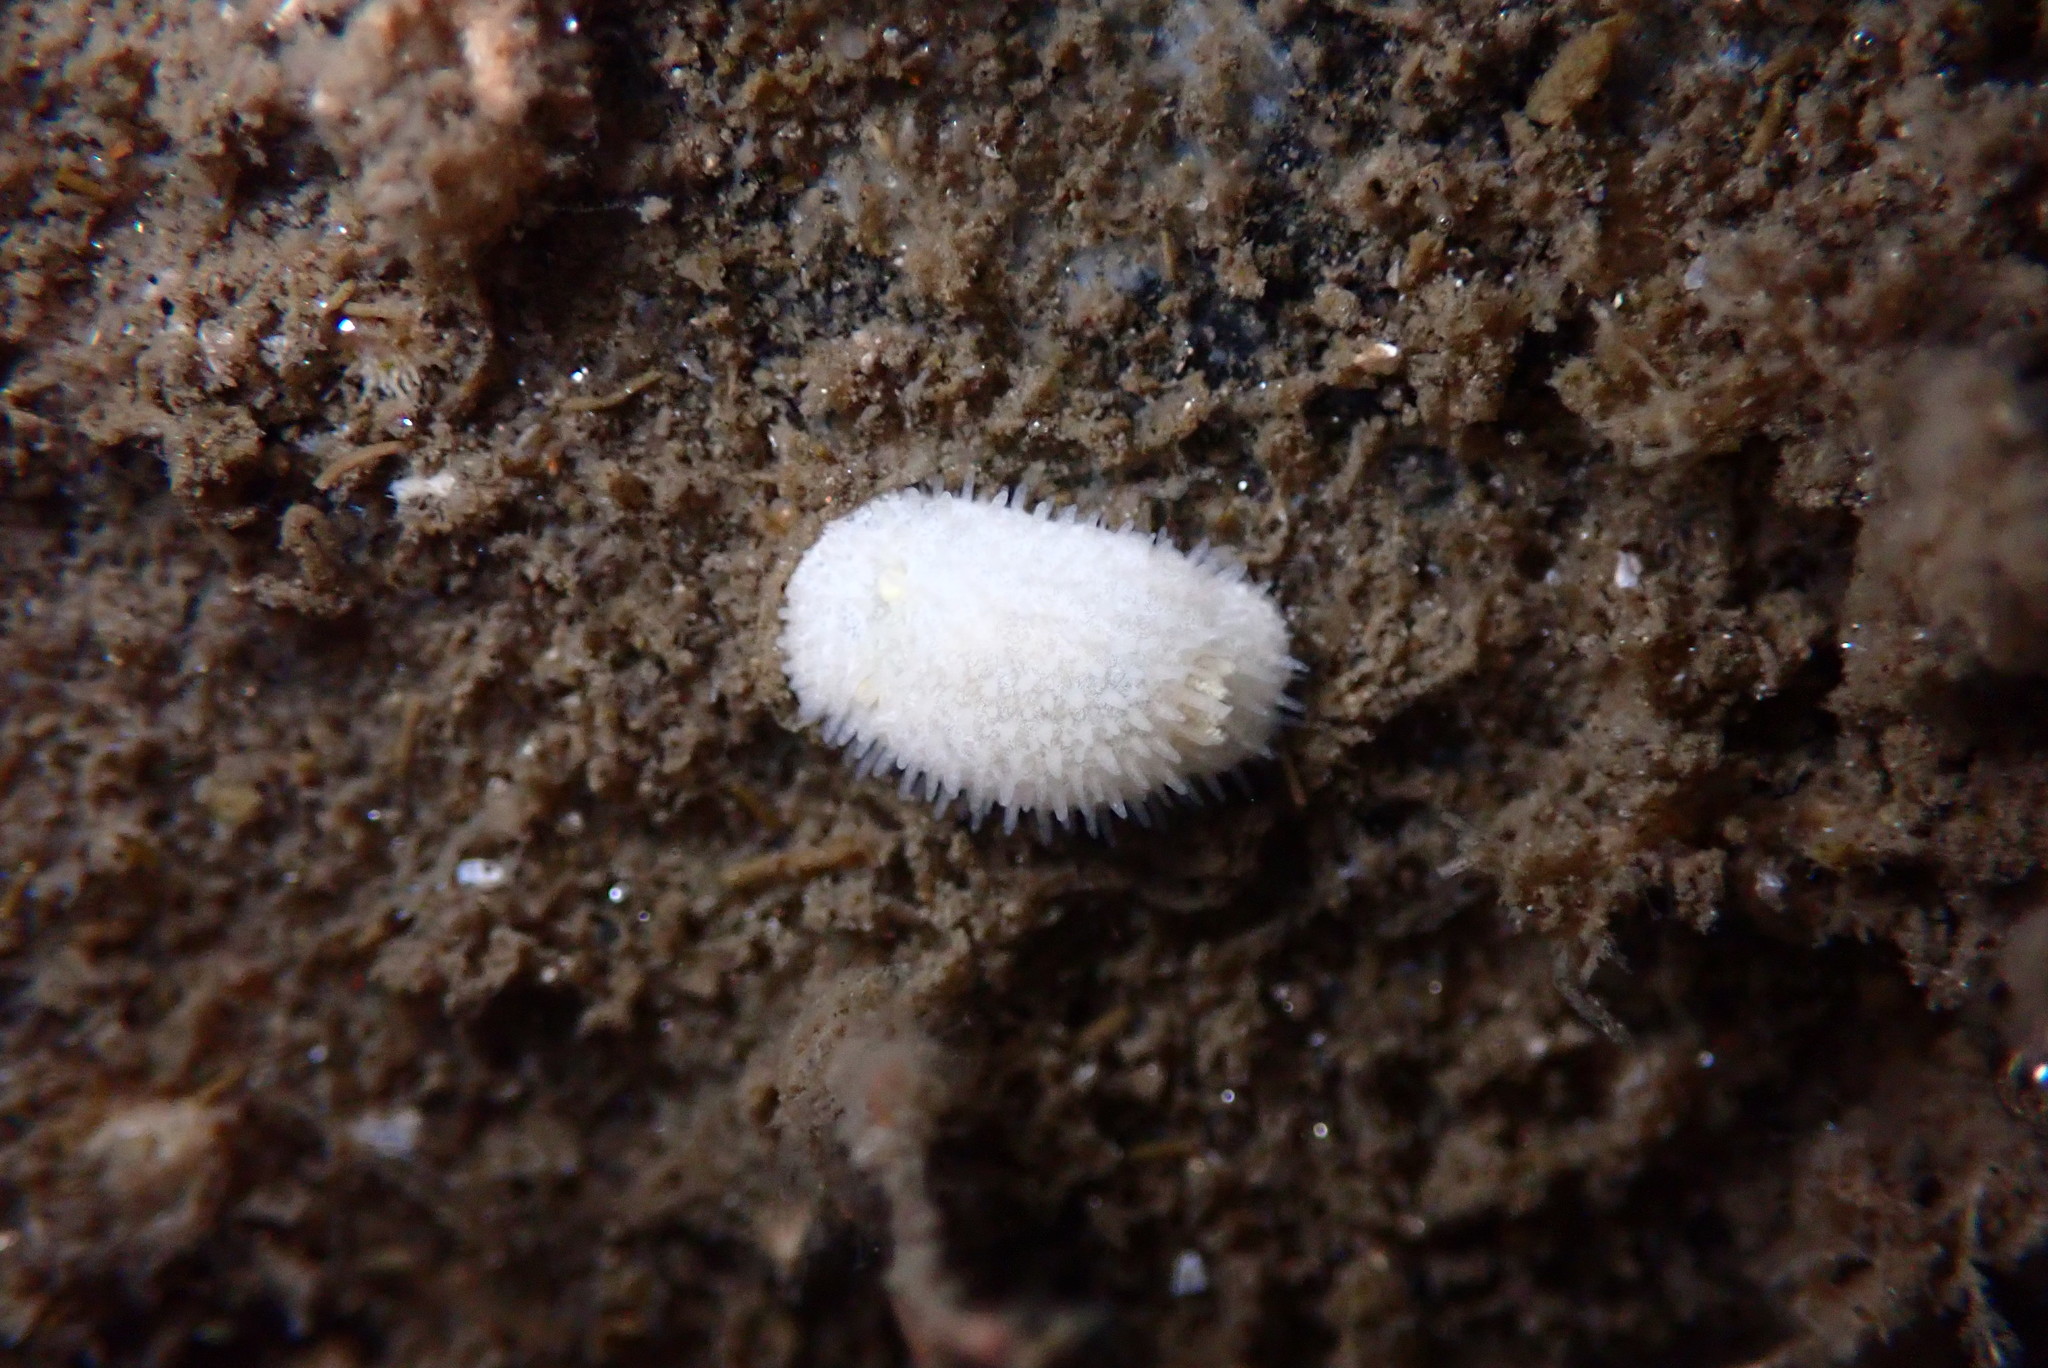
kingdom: Animalia
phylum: Mollusca
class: Gastropoda
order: Nudibranchia
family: Calycidorididae
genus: Diaphorodoris
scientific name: Diaphorodoris lirulatocauda
